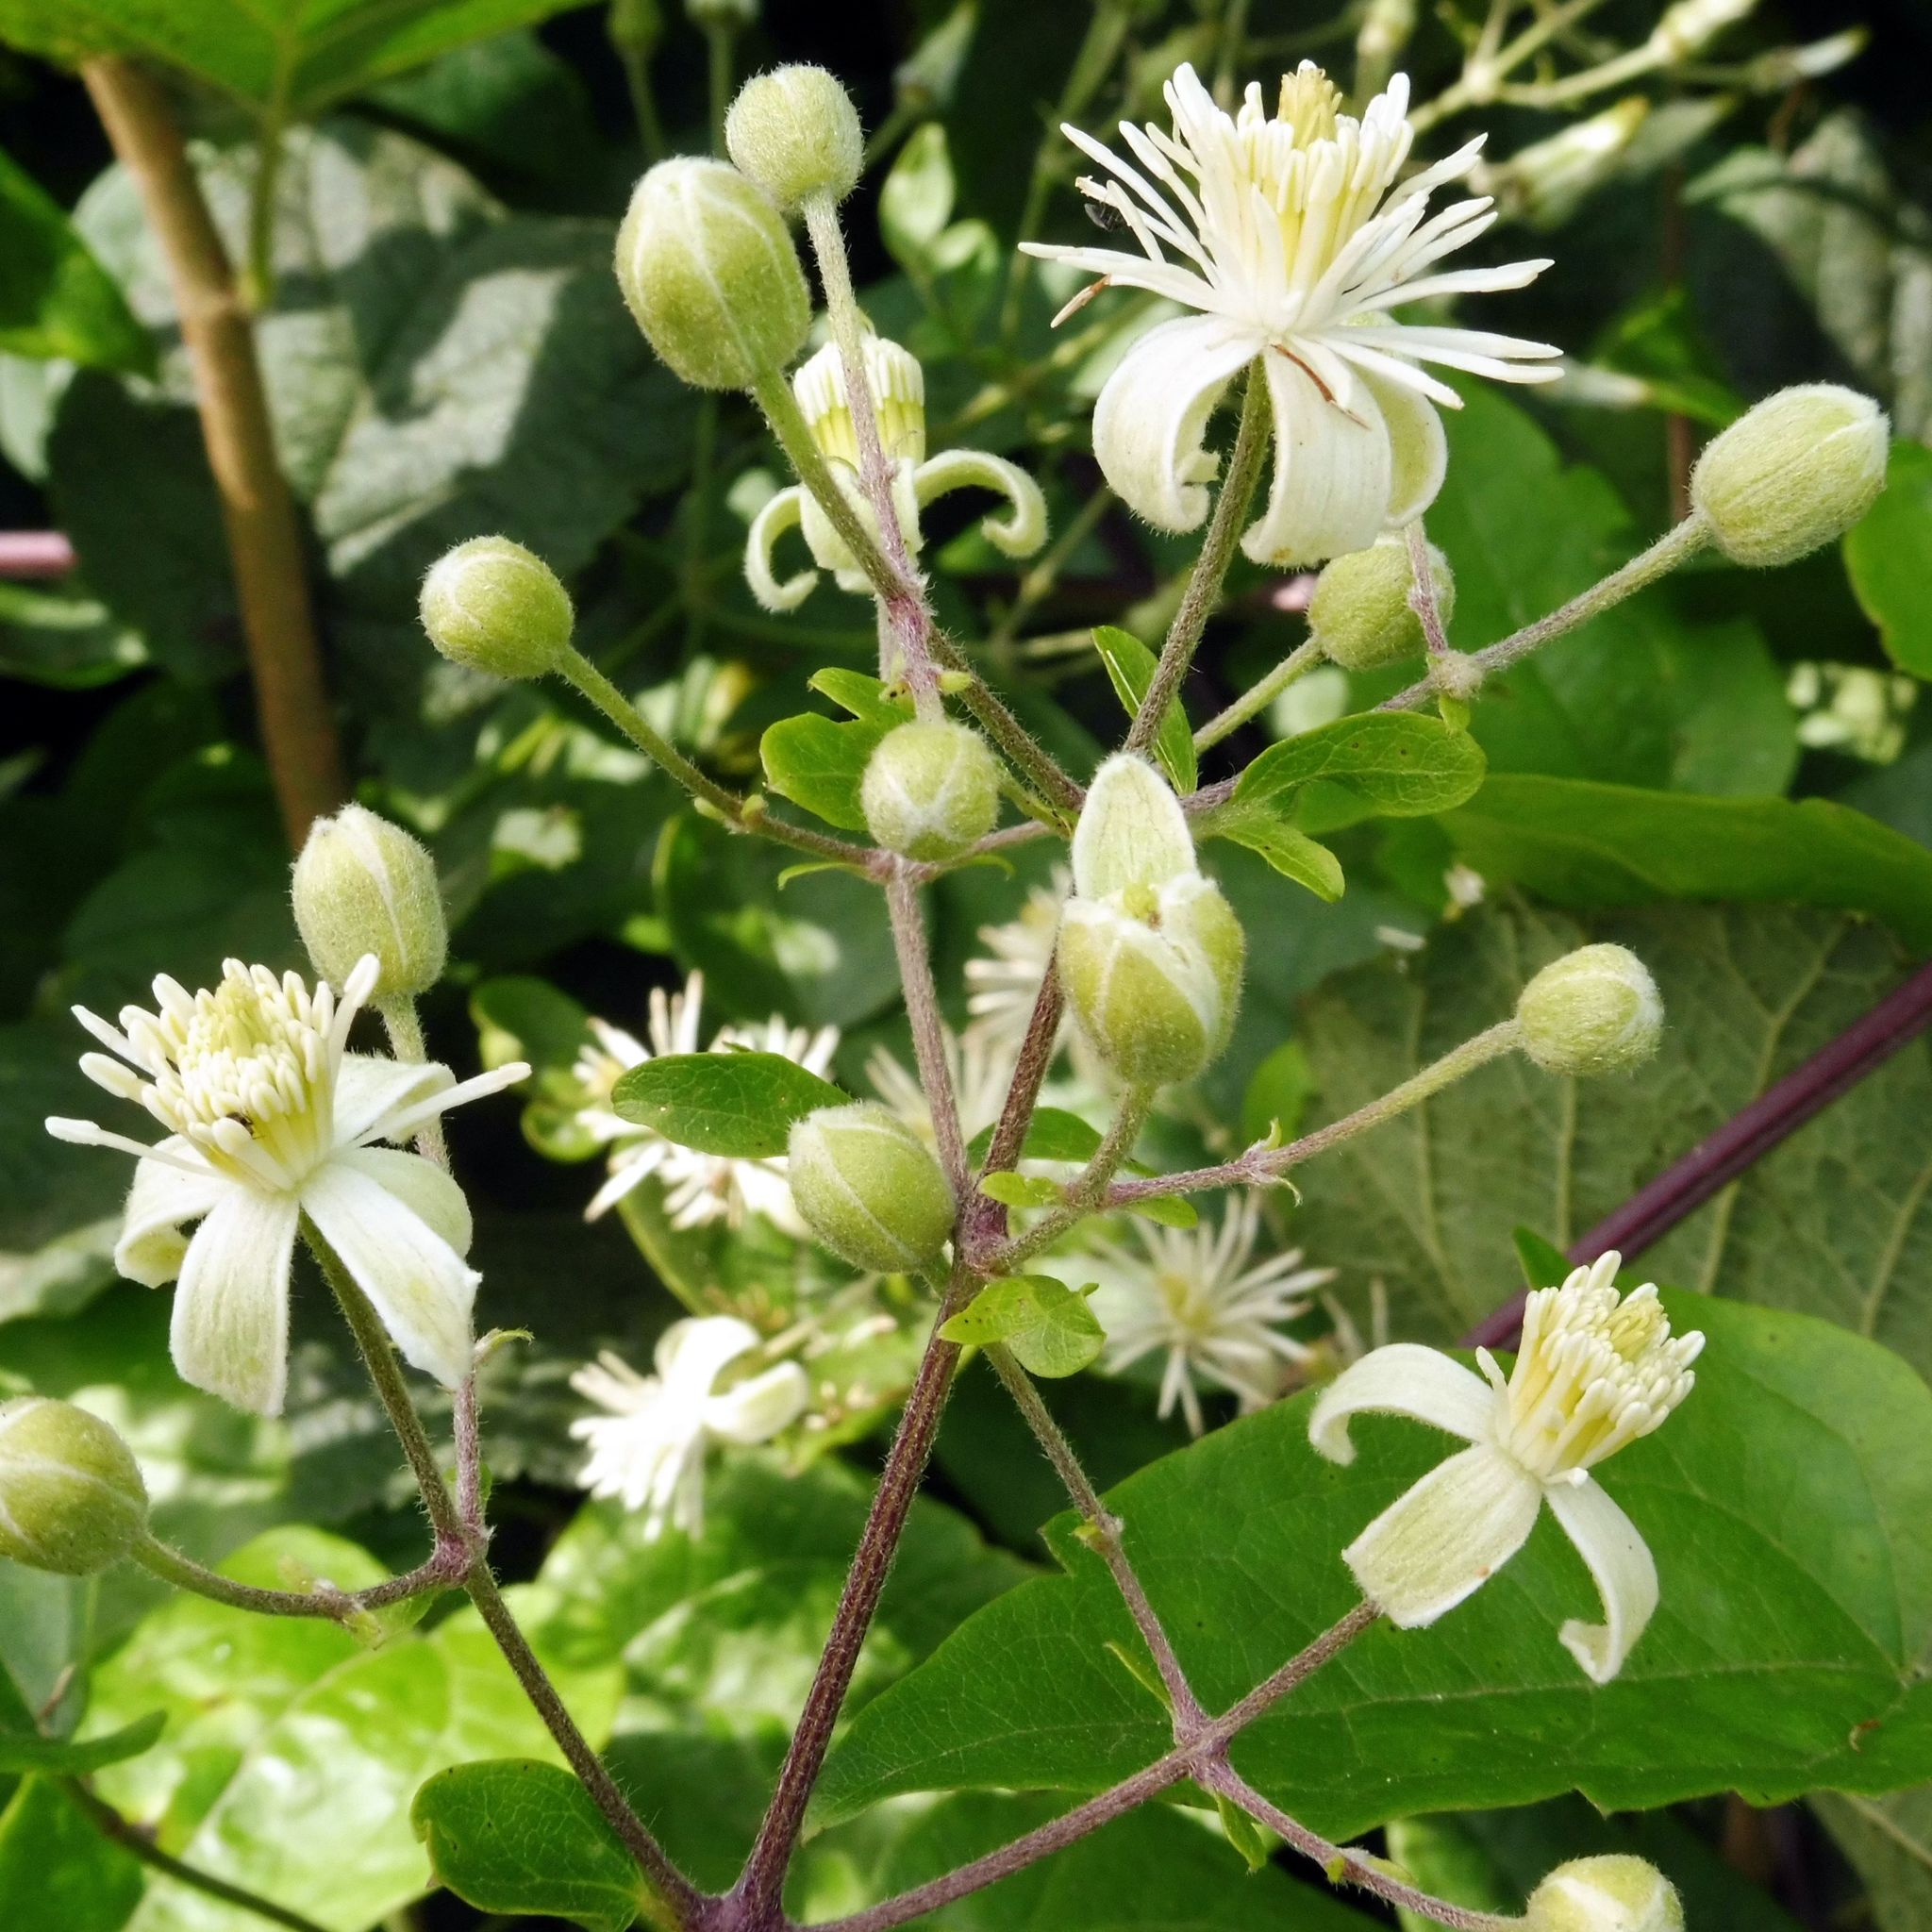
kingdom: Plantae
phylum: Tracheophyta
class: Magnoliopsida
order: Ranunculales
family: Ranunculaceae
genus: Clematis
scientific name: Clematis vitalba
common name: Evergreen clematis
